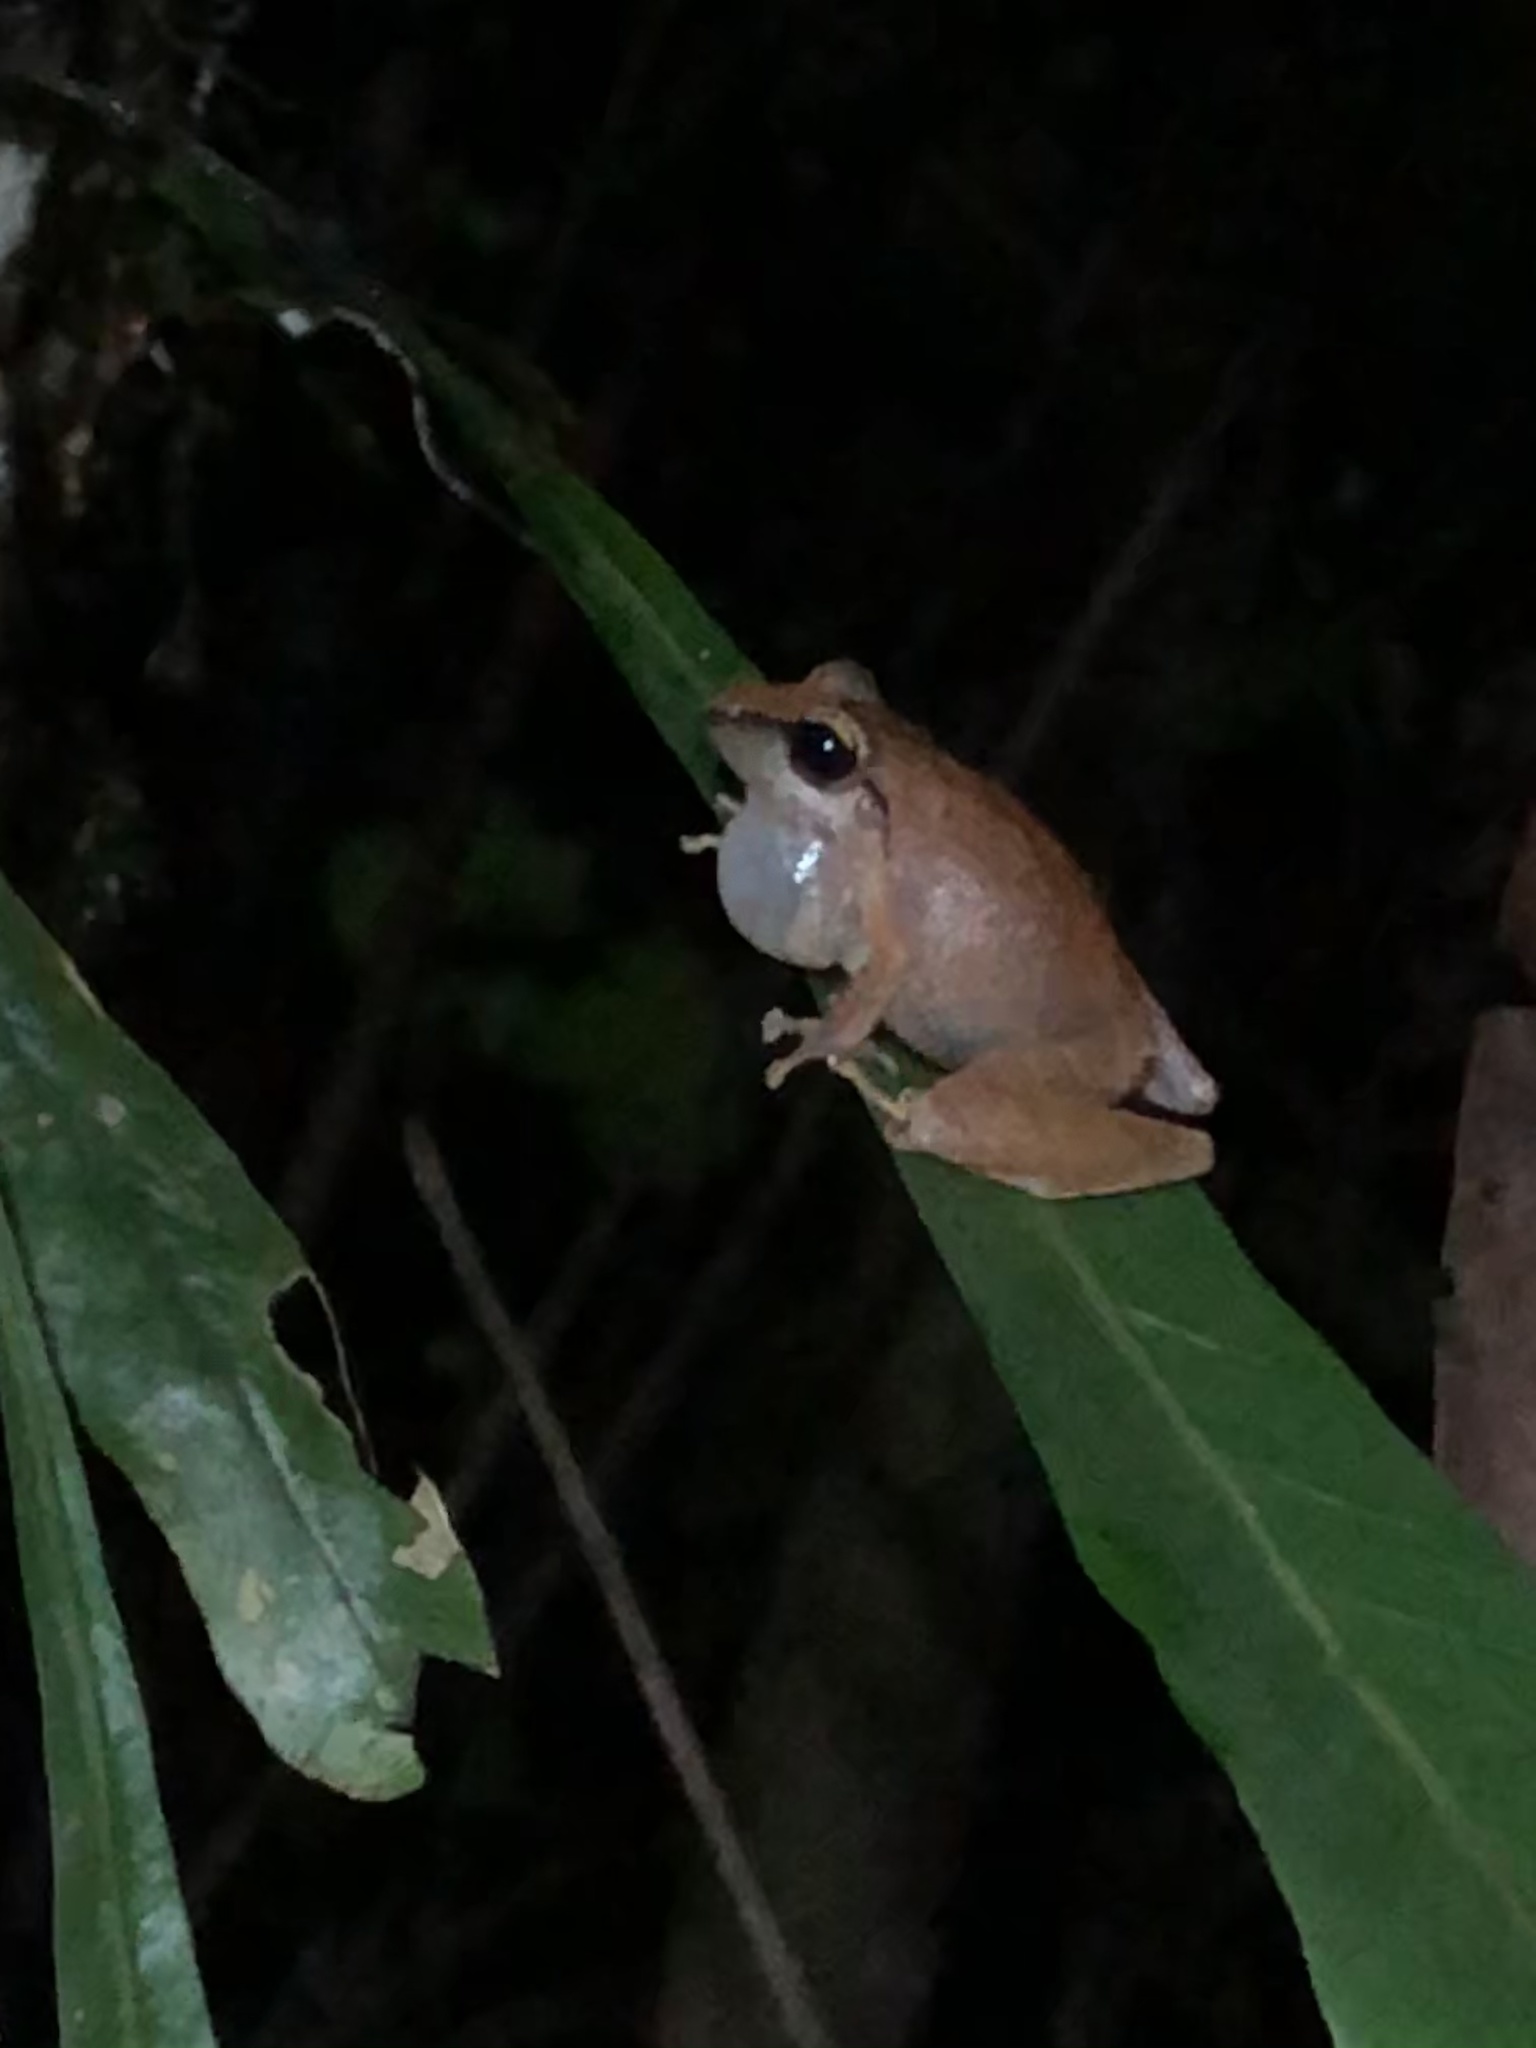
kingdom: Animalia
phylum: Chordata
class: Amphibia
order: Anura
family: Craugastoridae
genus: Pristimantis
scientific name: Pristimantis reichlei
